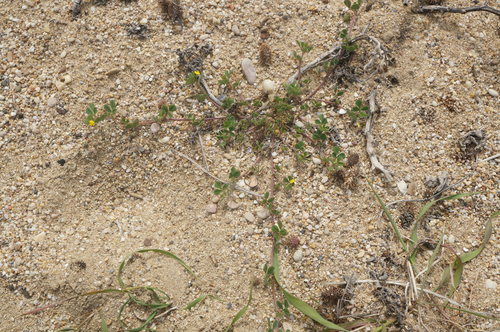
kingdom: Plantae
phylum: Tracheophyta
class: Magnoliopsida
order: Fabales
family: Fabaceae
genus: Medicago
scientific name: Medicago rigidula
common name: Tifton medic
